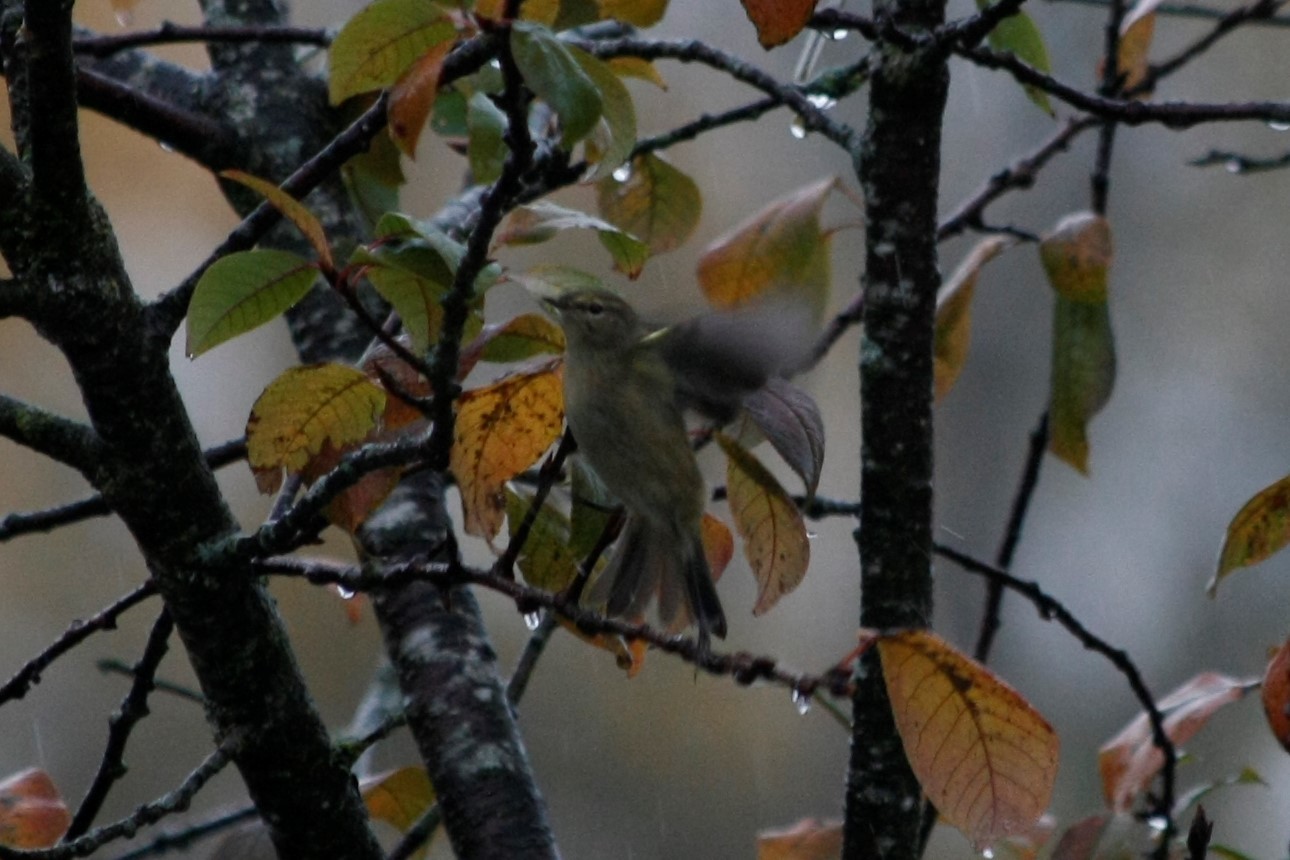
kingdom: Animalia
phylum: Chordata
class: Aves
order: Passeriformes
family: Phylloscopidae
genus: Phylloscopus
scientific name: Phylloscopus collybita
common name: Common chiffchaff
